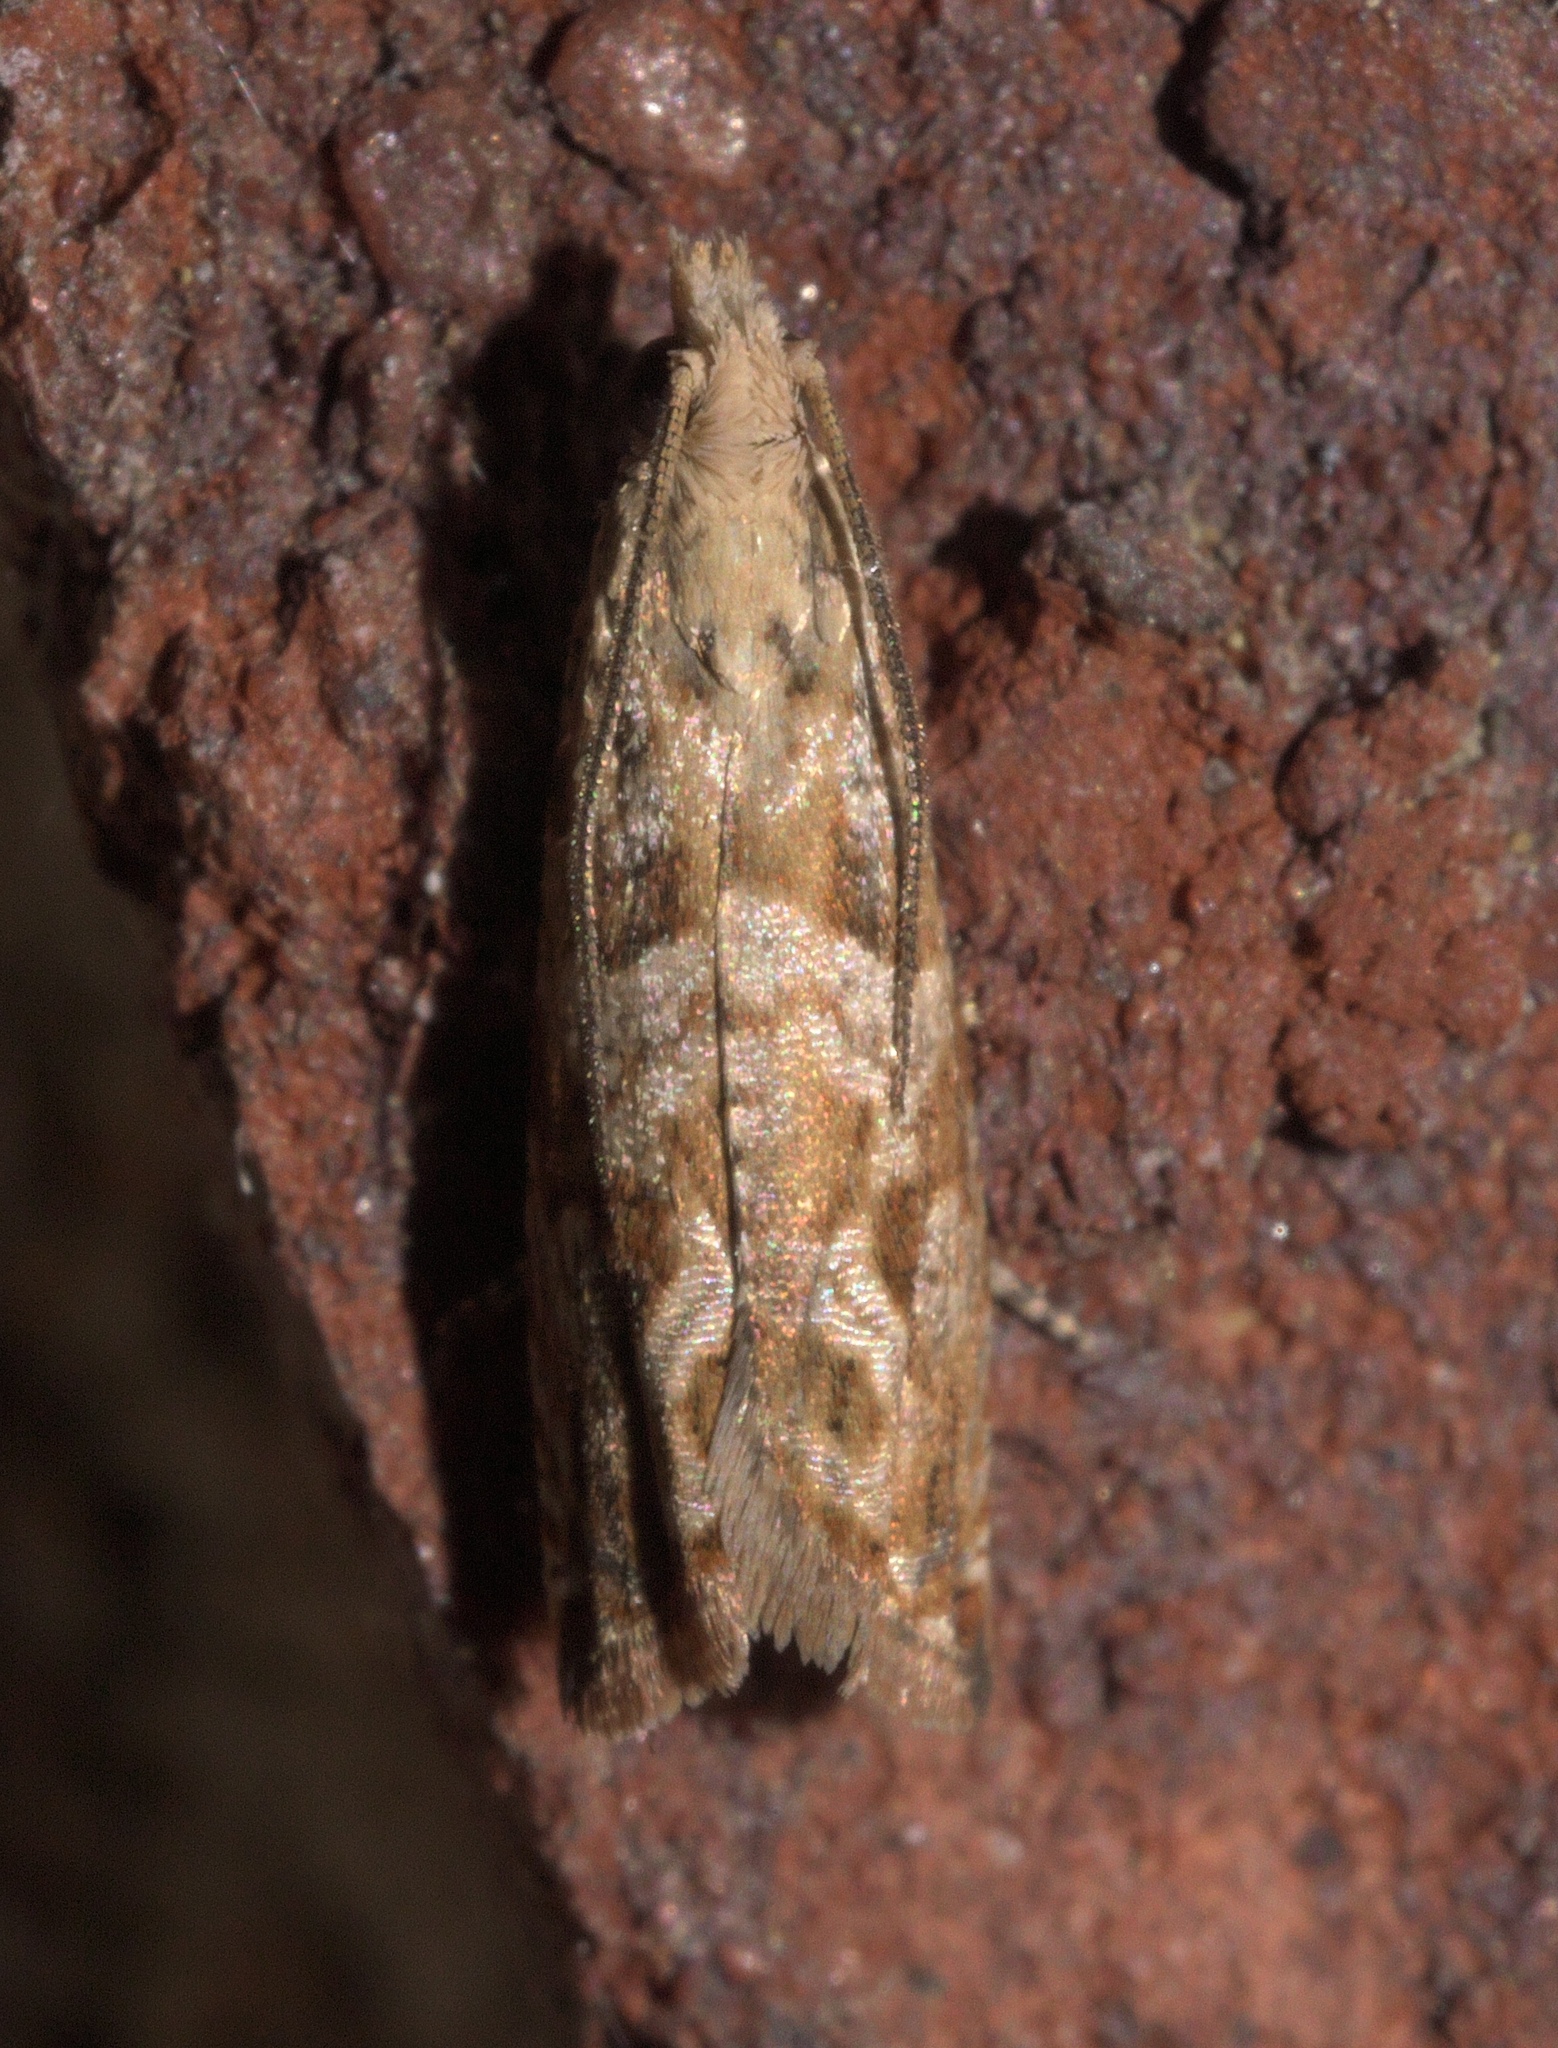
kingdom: Animalia
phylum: Arthropoda
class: Insecta
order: Lepidoptera
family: Tortricidae
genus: Bactra
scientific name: Bactra furfurana
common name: Mottled marble
